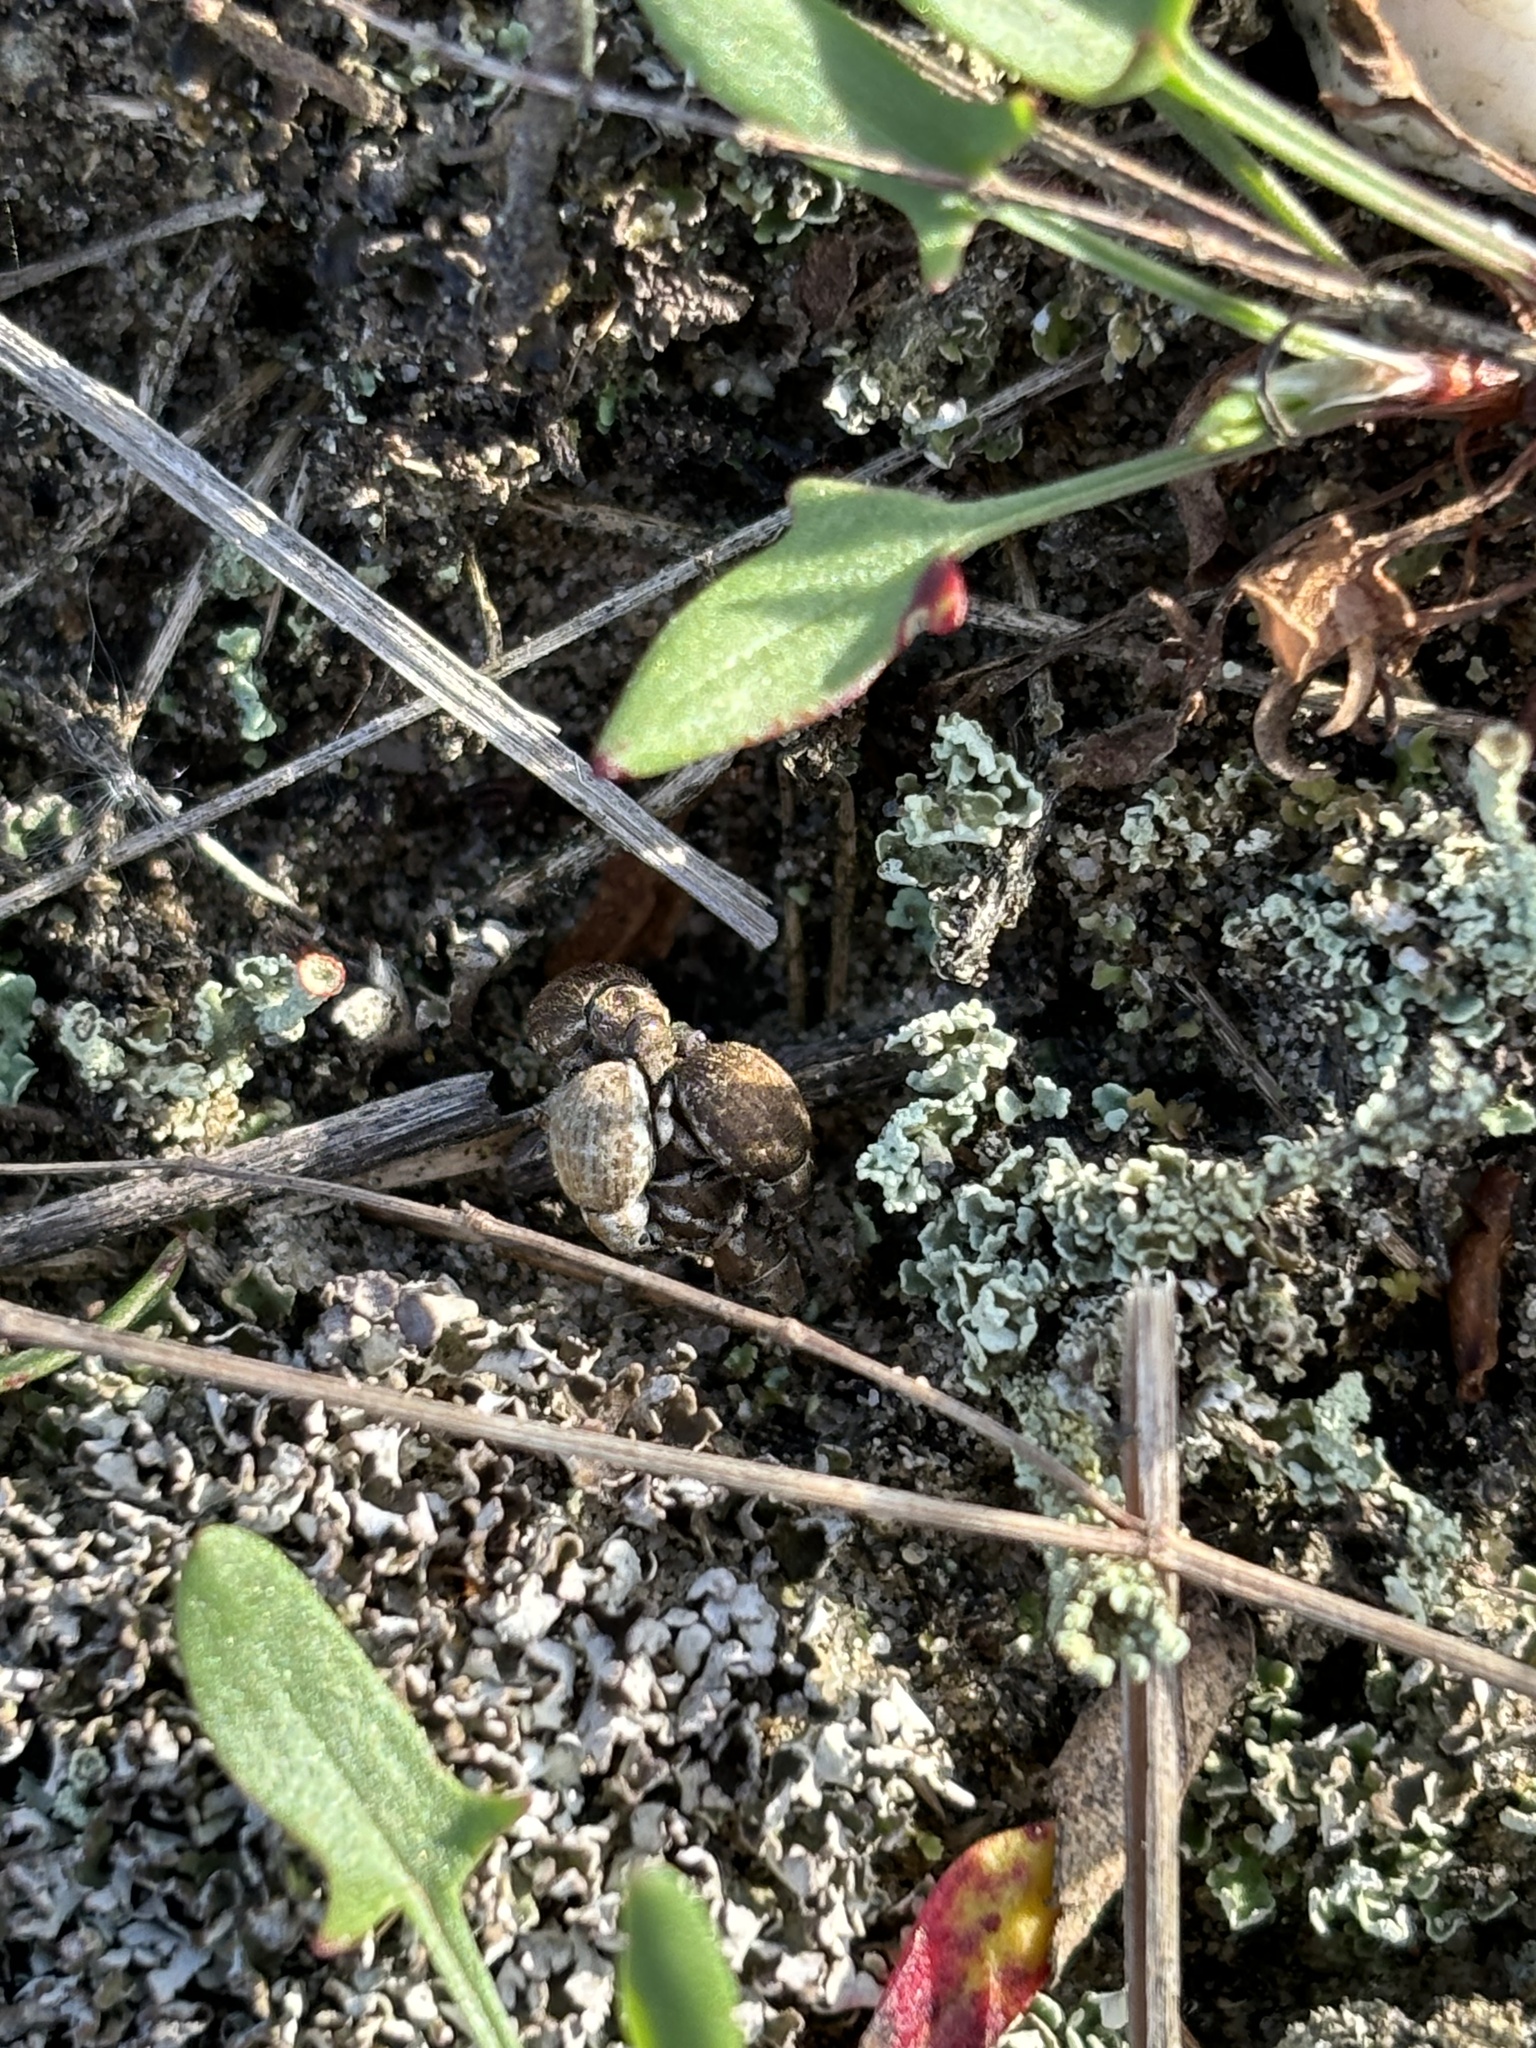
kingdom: Animalia
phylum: Arthropoda
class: Insecta
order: Coleoptera
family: Curculionidae
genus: Philopedon
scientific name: Philopedon plagiatum
